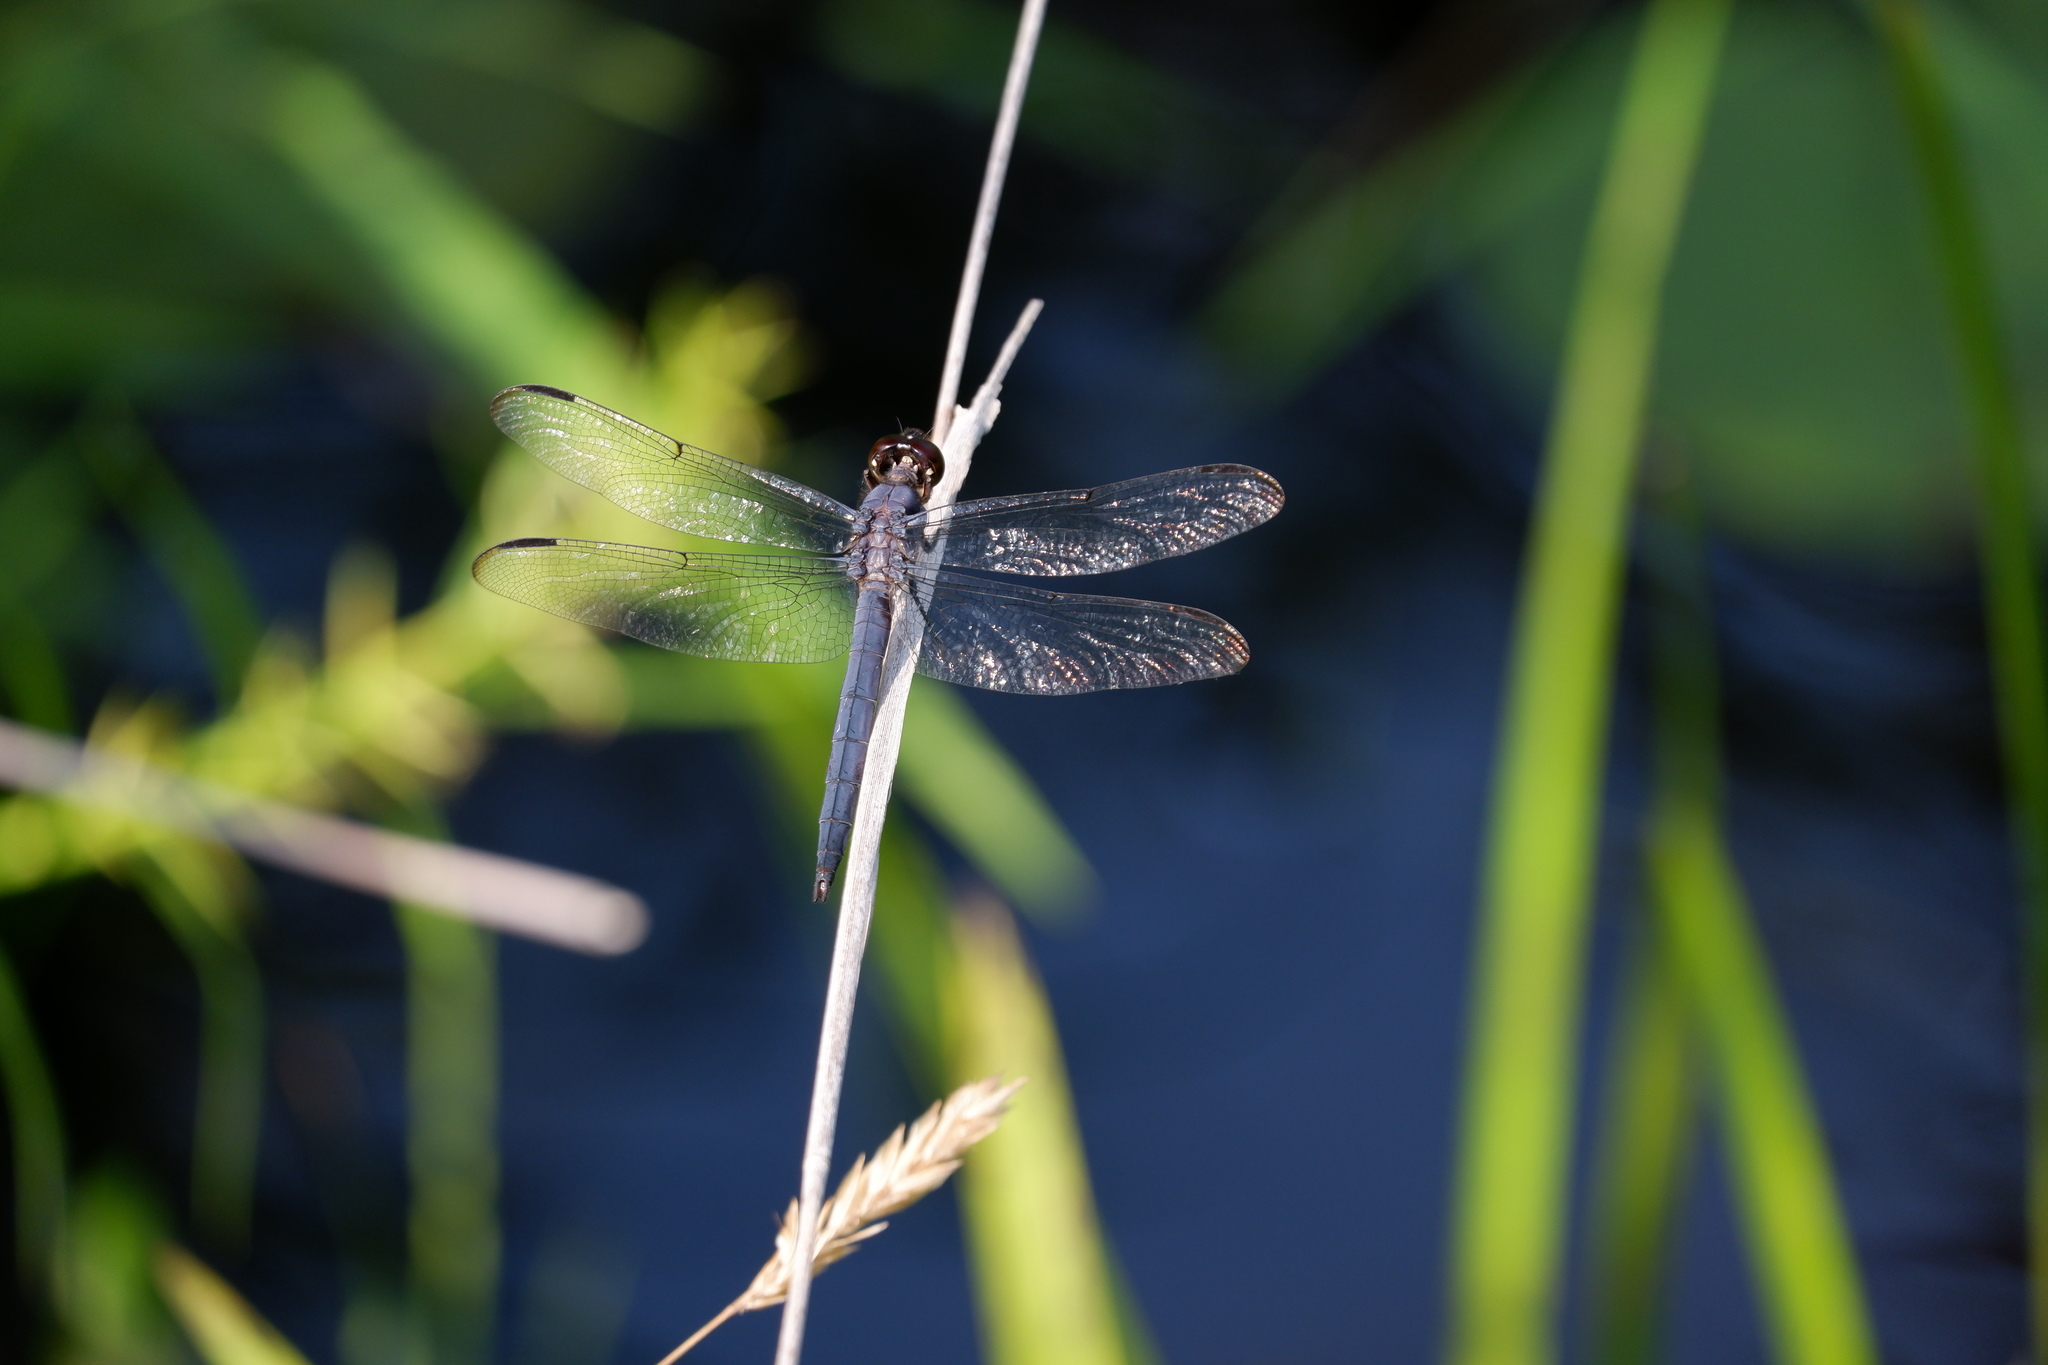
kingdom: Animalia
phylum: Arthropoda
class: Insecta
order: Odonata
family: Libellulidae
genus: Libellula
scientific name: Libellula incesta
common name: Slaty skimmer
